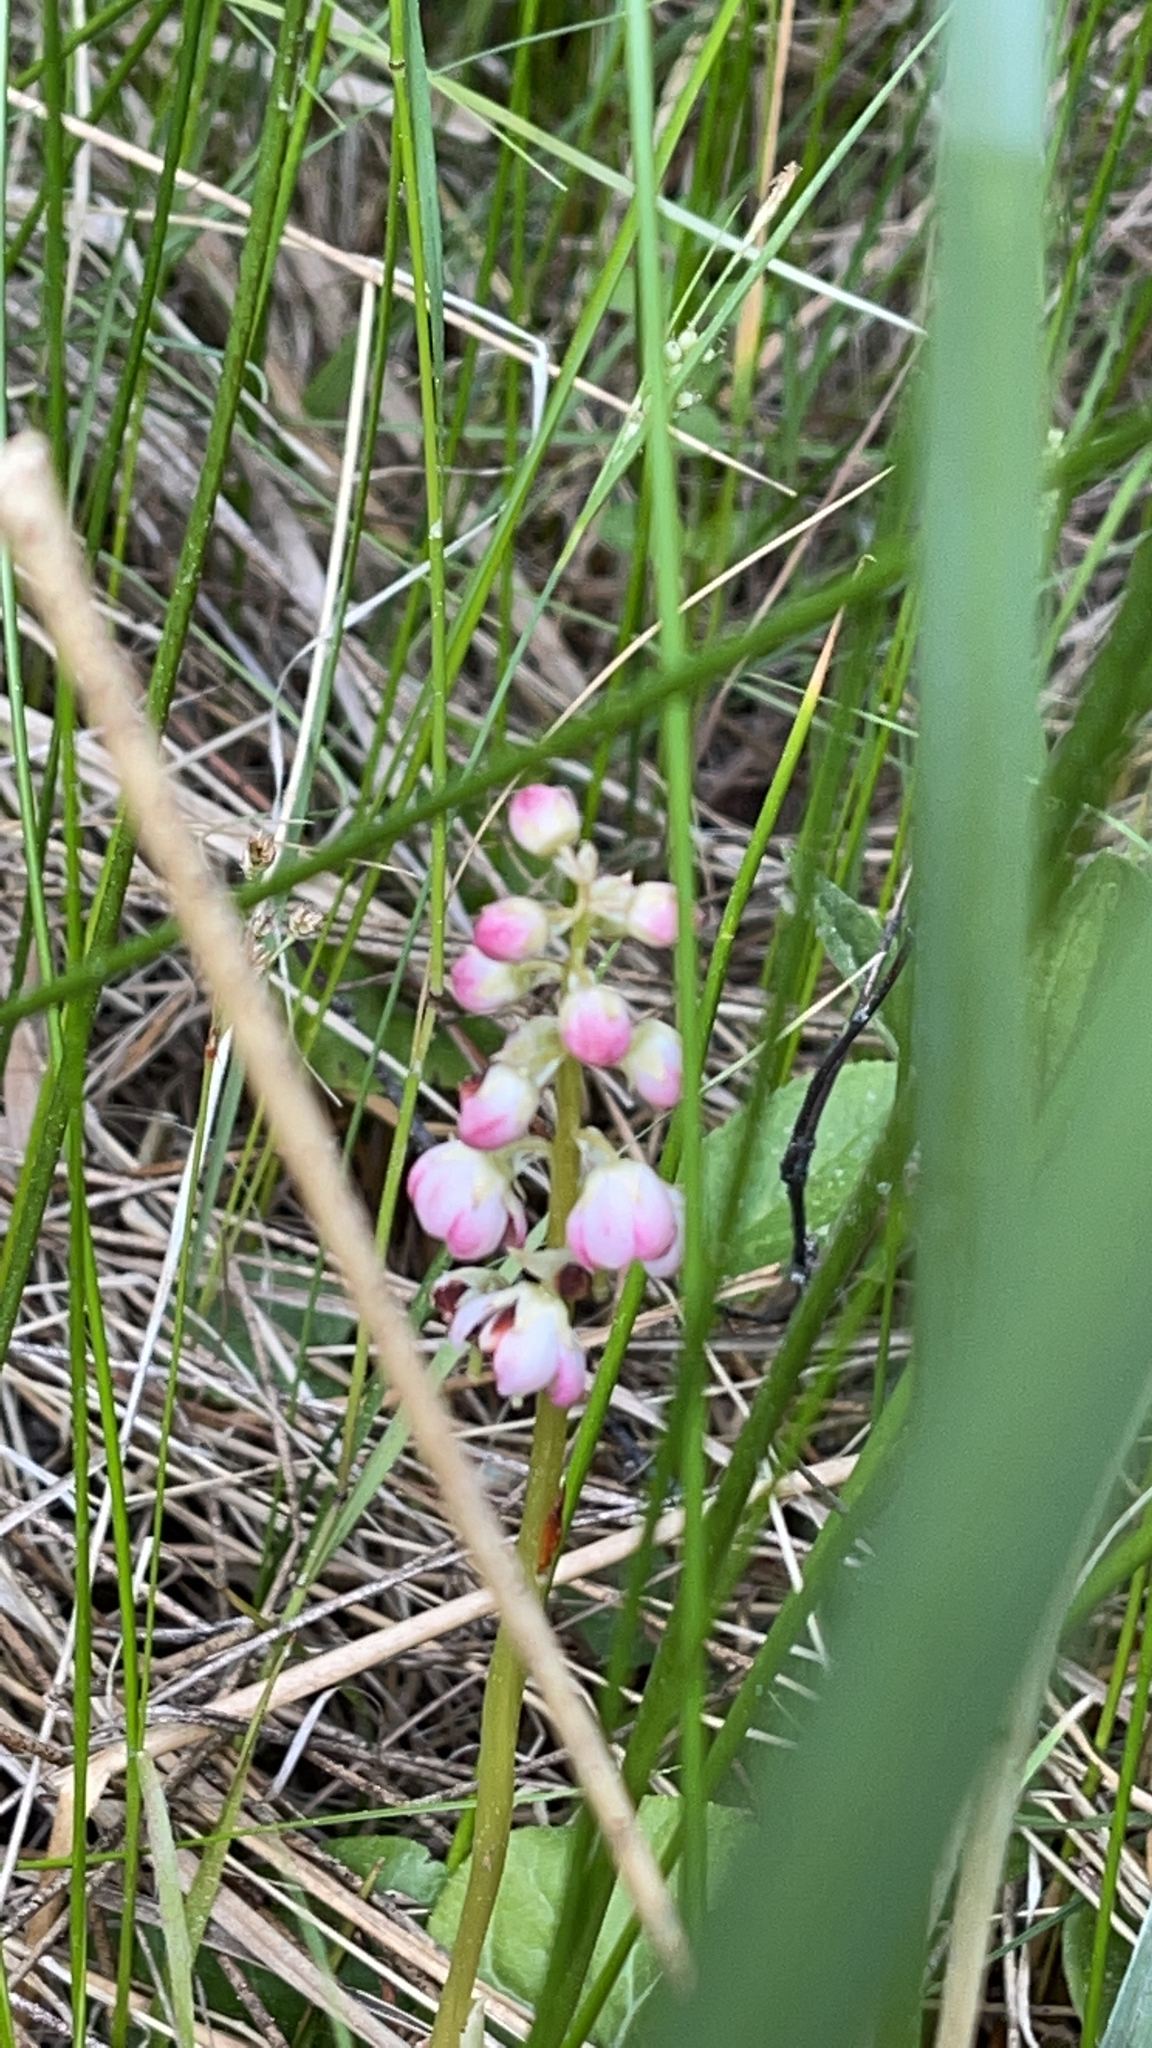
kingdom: Plantae
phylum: Tracheophyta
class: Magnoliopsida
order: Ericales
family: Ericaceae
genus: Pyrola
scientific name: Pyrola asarifolia
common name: Bog wintergreen
